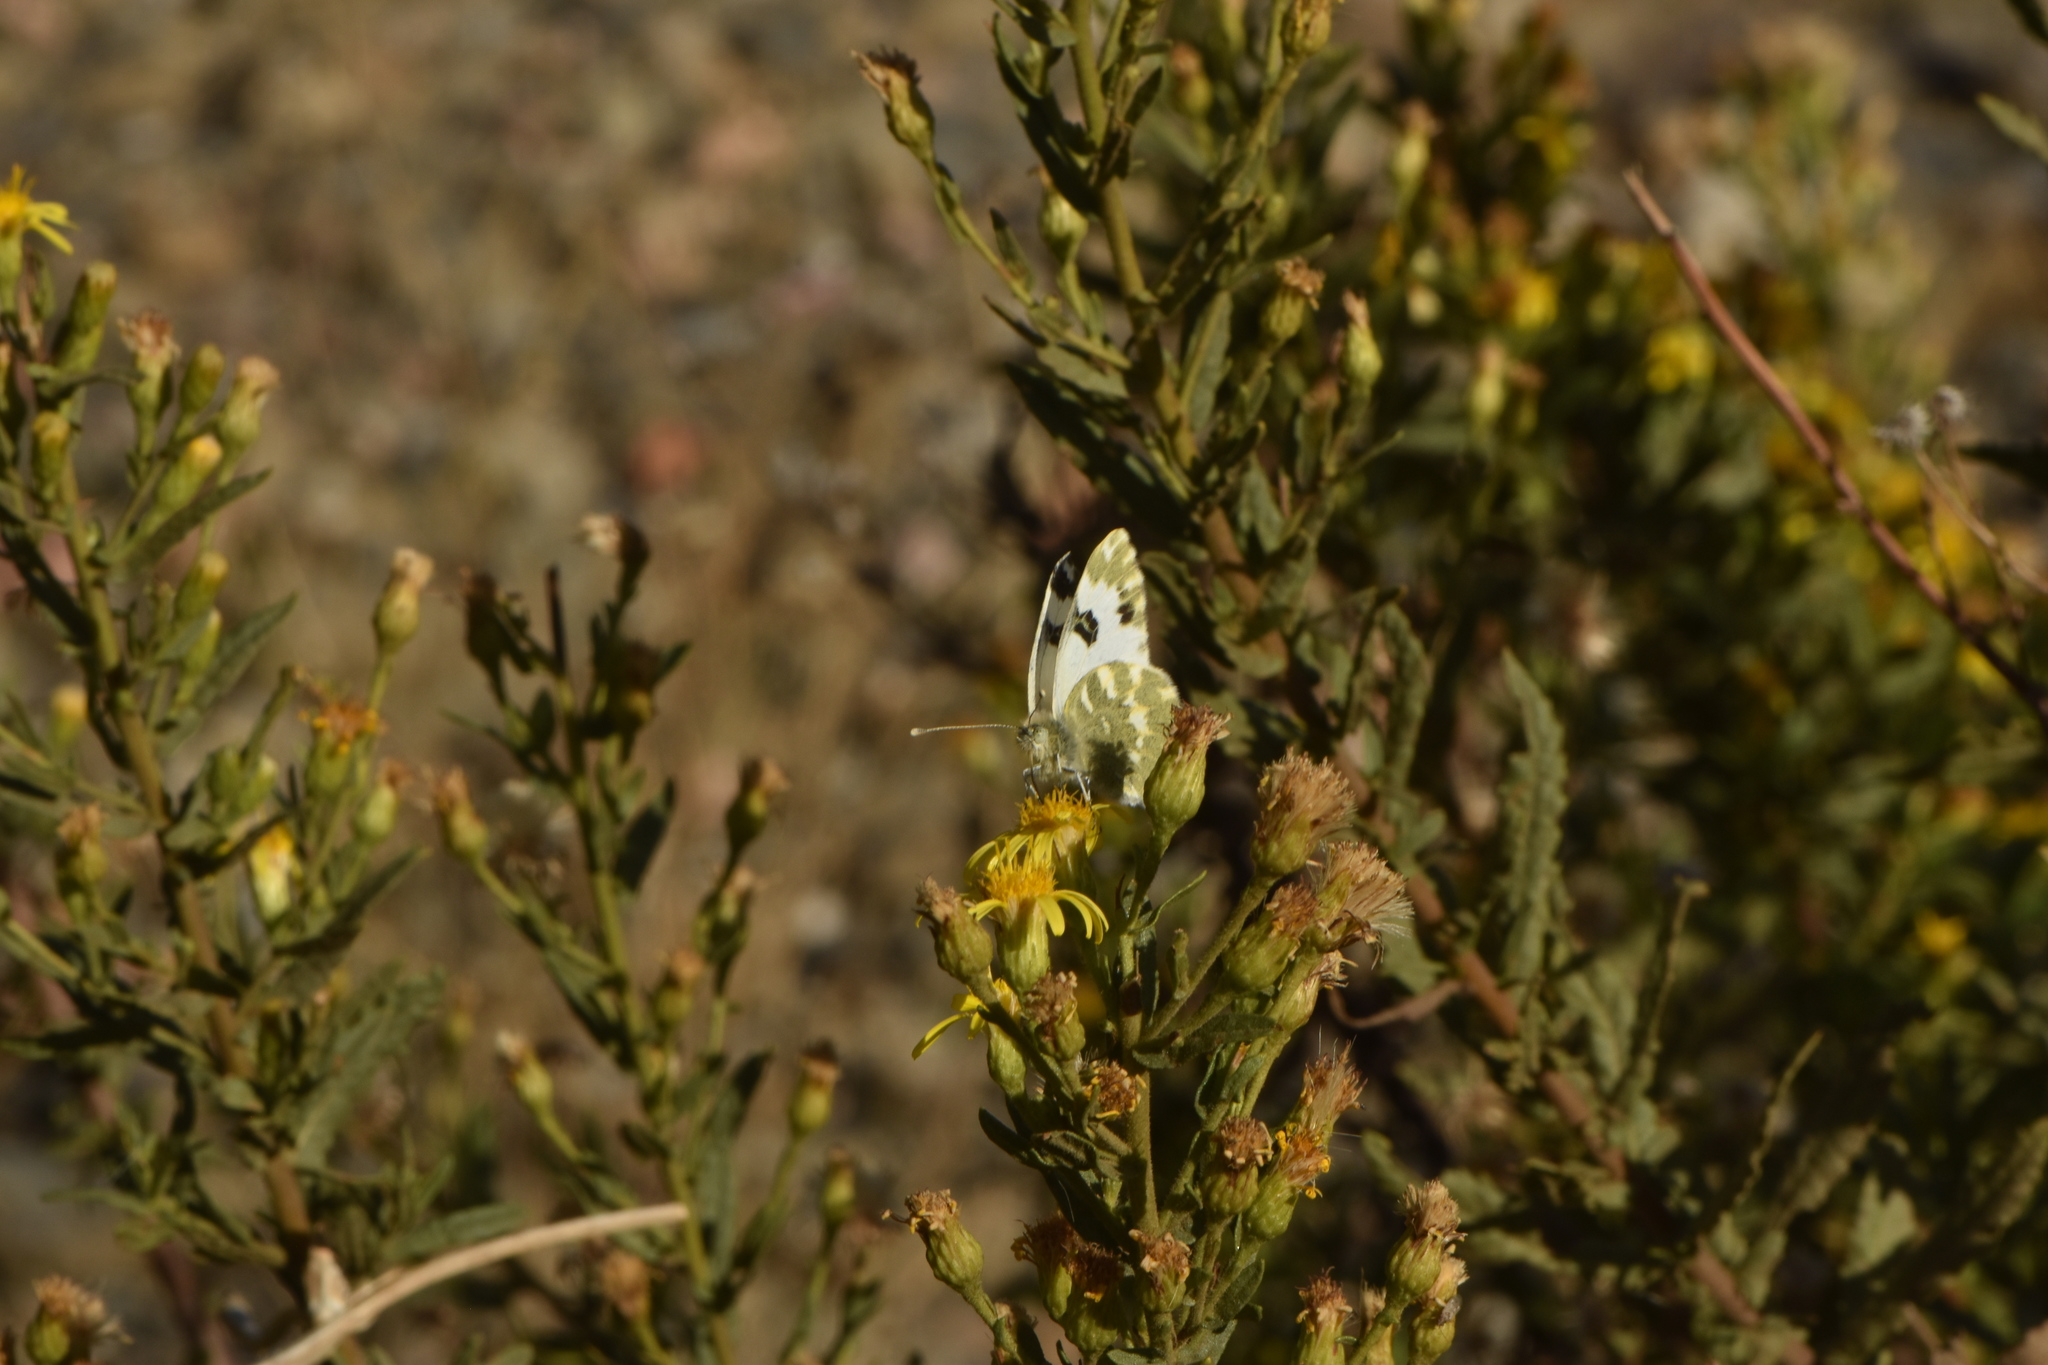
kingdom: Animalia
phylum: Arthropoda
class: Insecta
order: Lepidoptera
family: Pieridae
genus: Pontia
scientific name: Pontia daplidice
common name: Bath white
